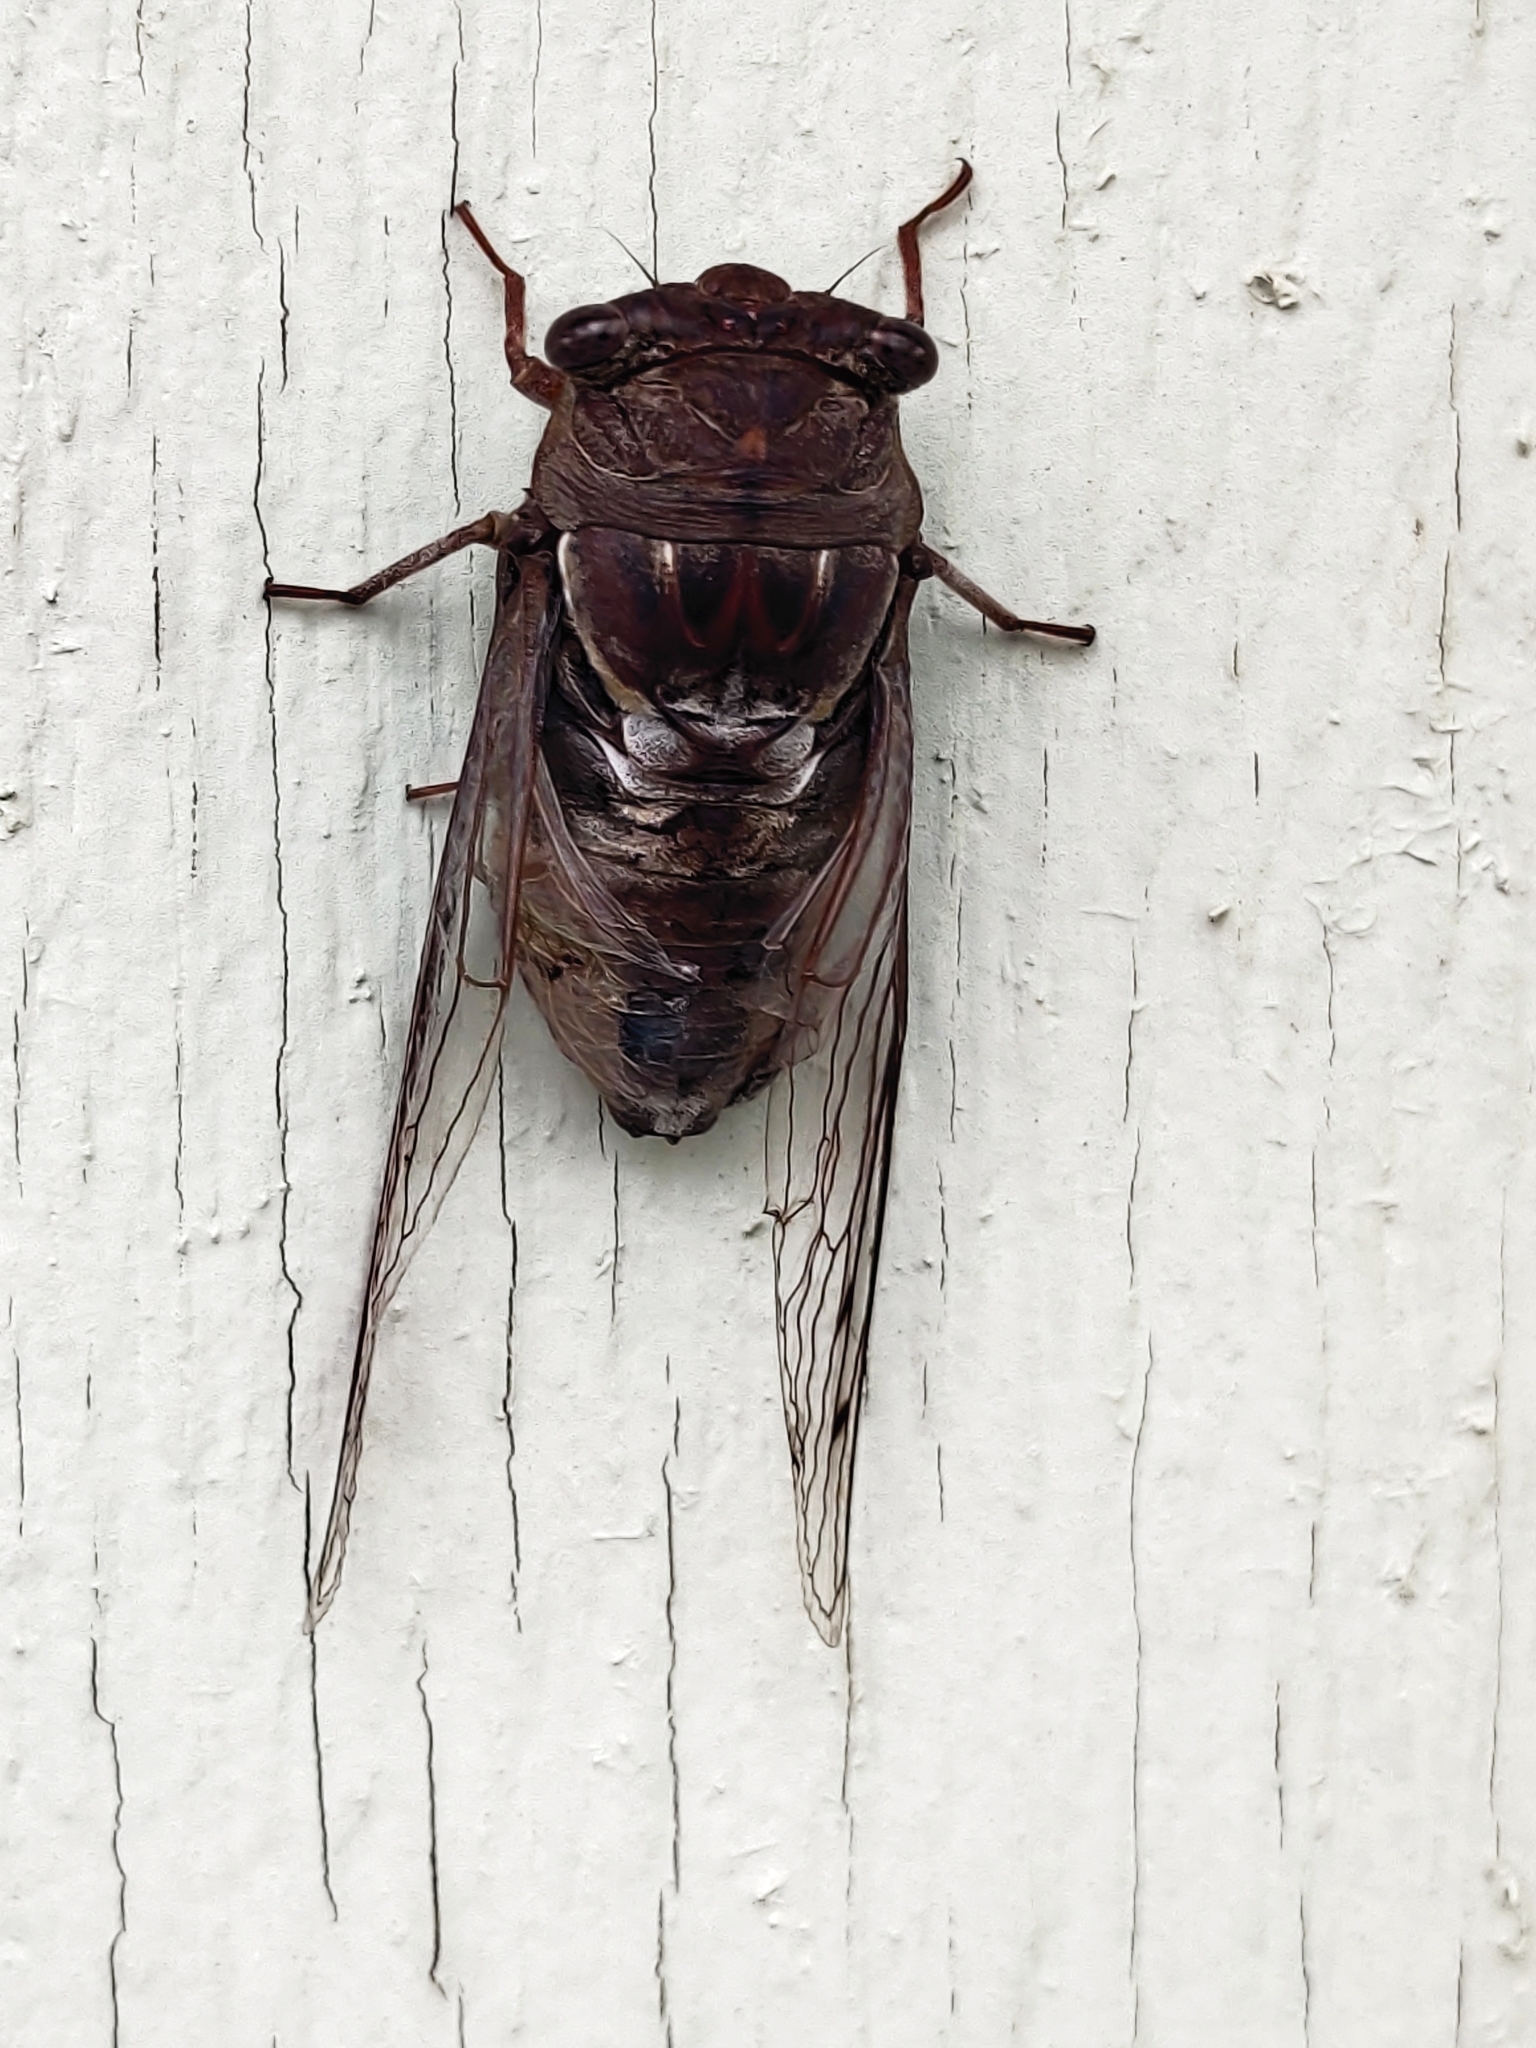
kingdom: Animalia
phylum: Arthropoda
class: Insecta
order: Hemiptera
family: Cicadidae
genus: Megatibicen
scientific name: Megatibicen resonans
